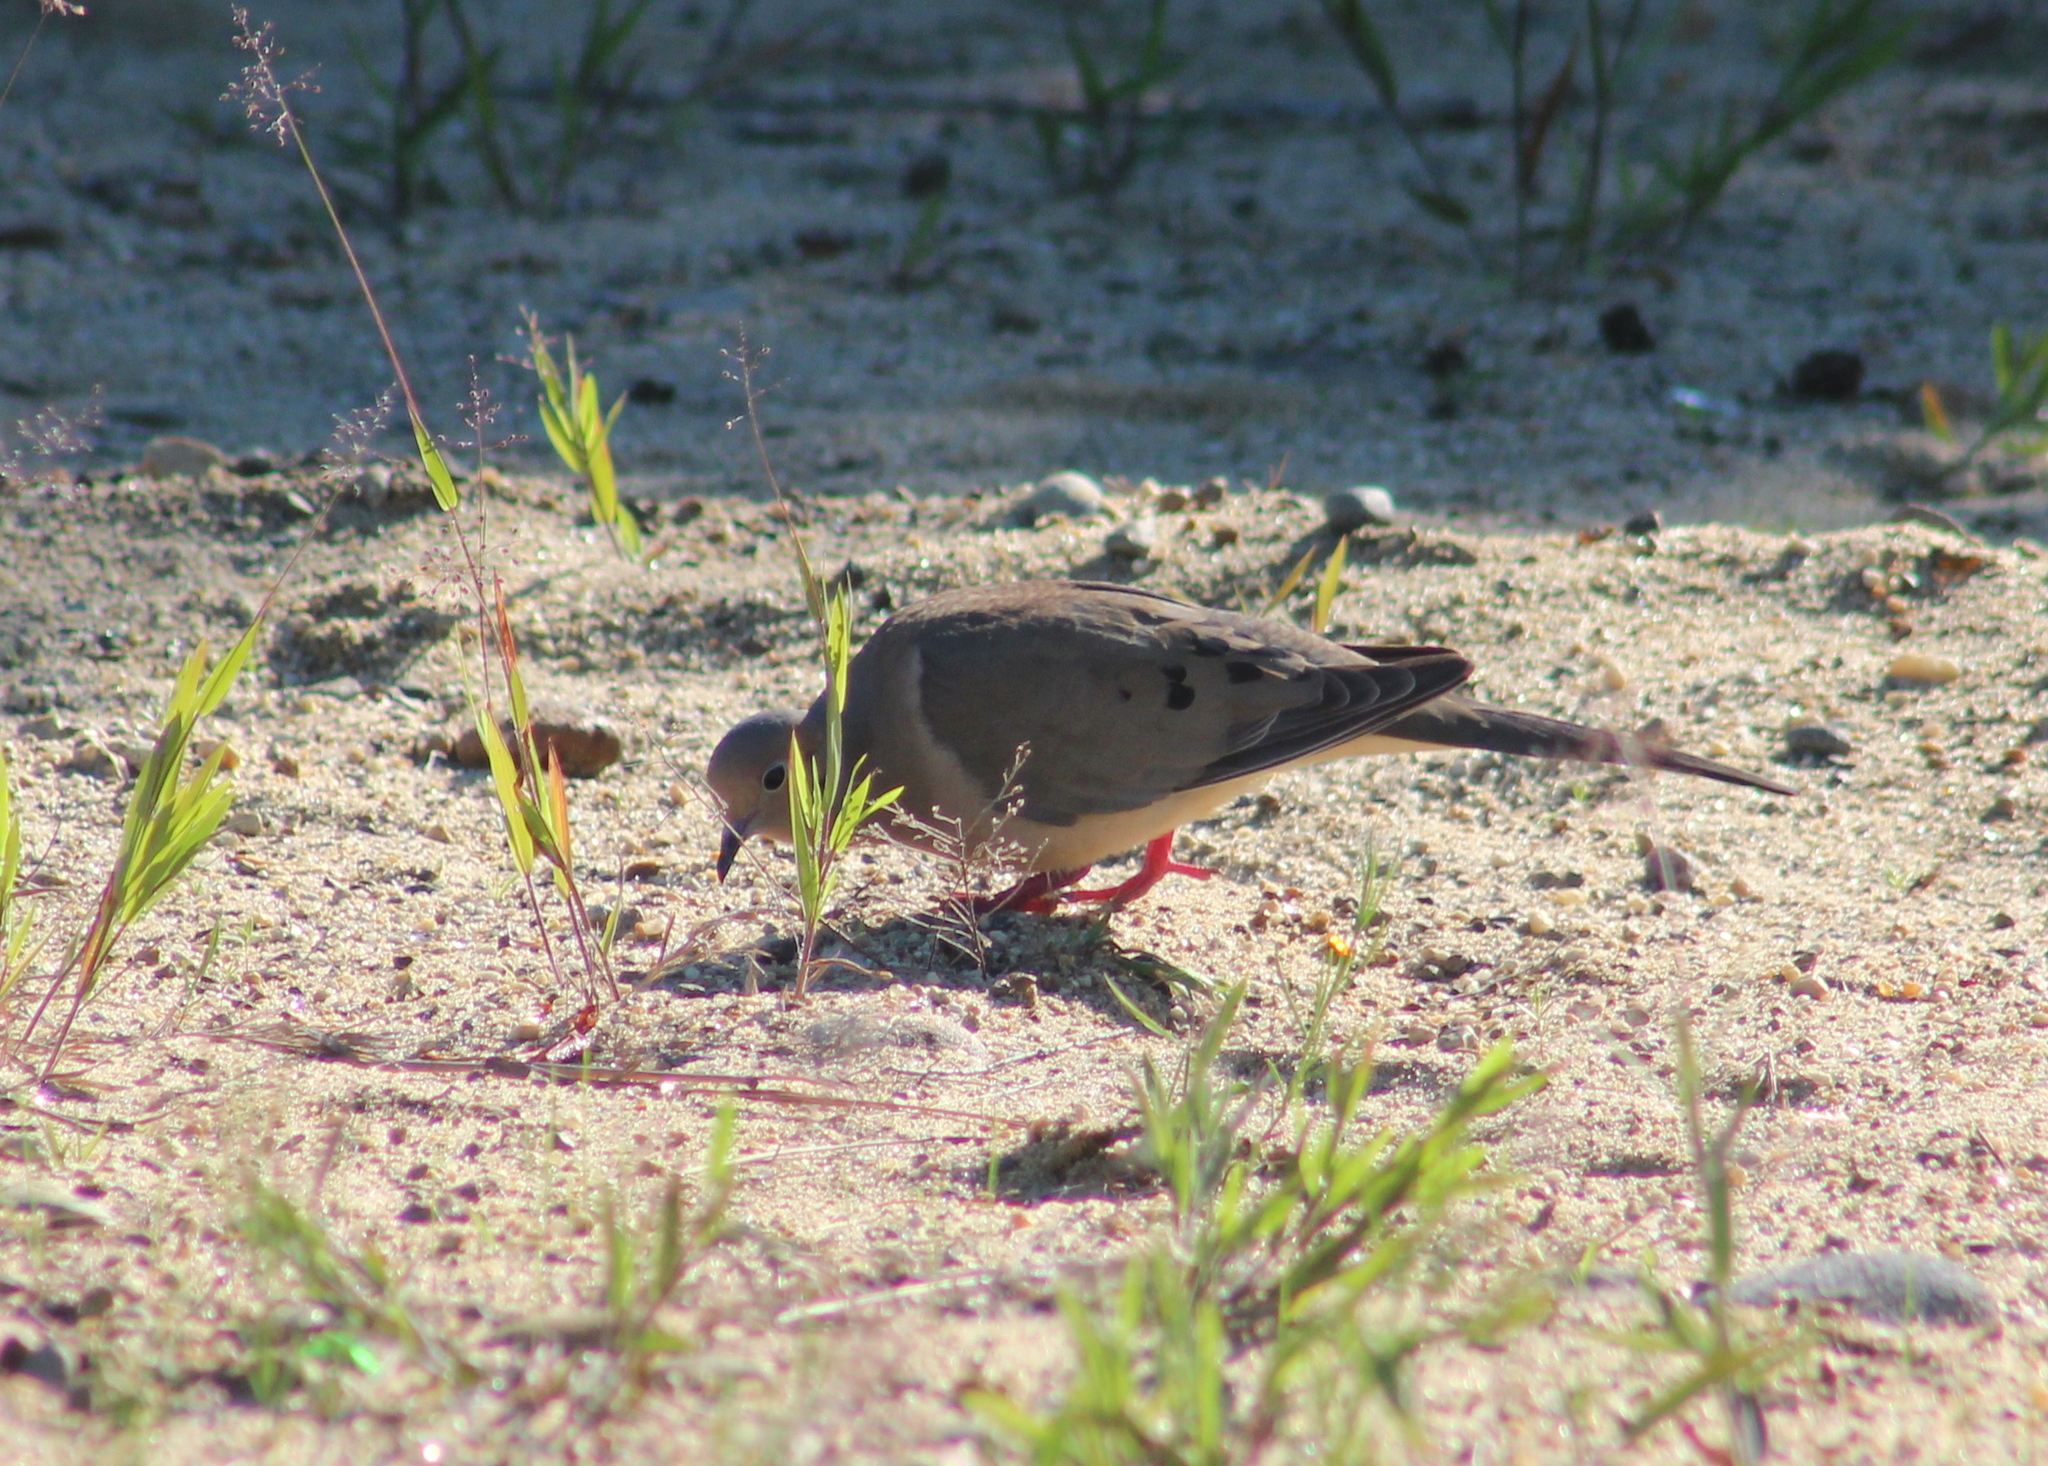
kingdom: Animalia
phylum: Chordata
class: Aves
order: Columbiformes
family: Columbidae
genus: Zenaida
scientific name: Zenaida macroura
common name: Mourning dove
